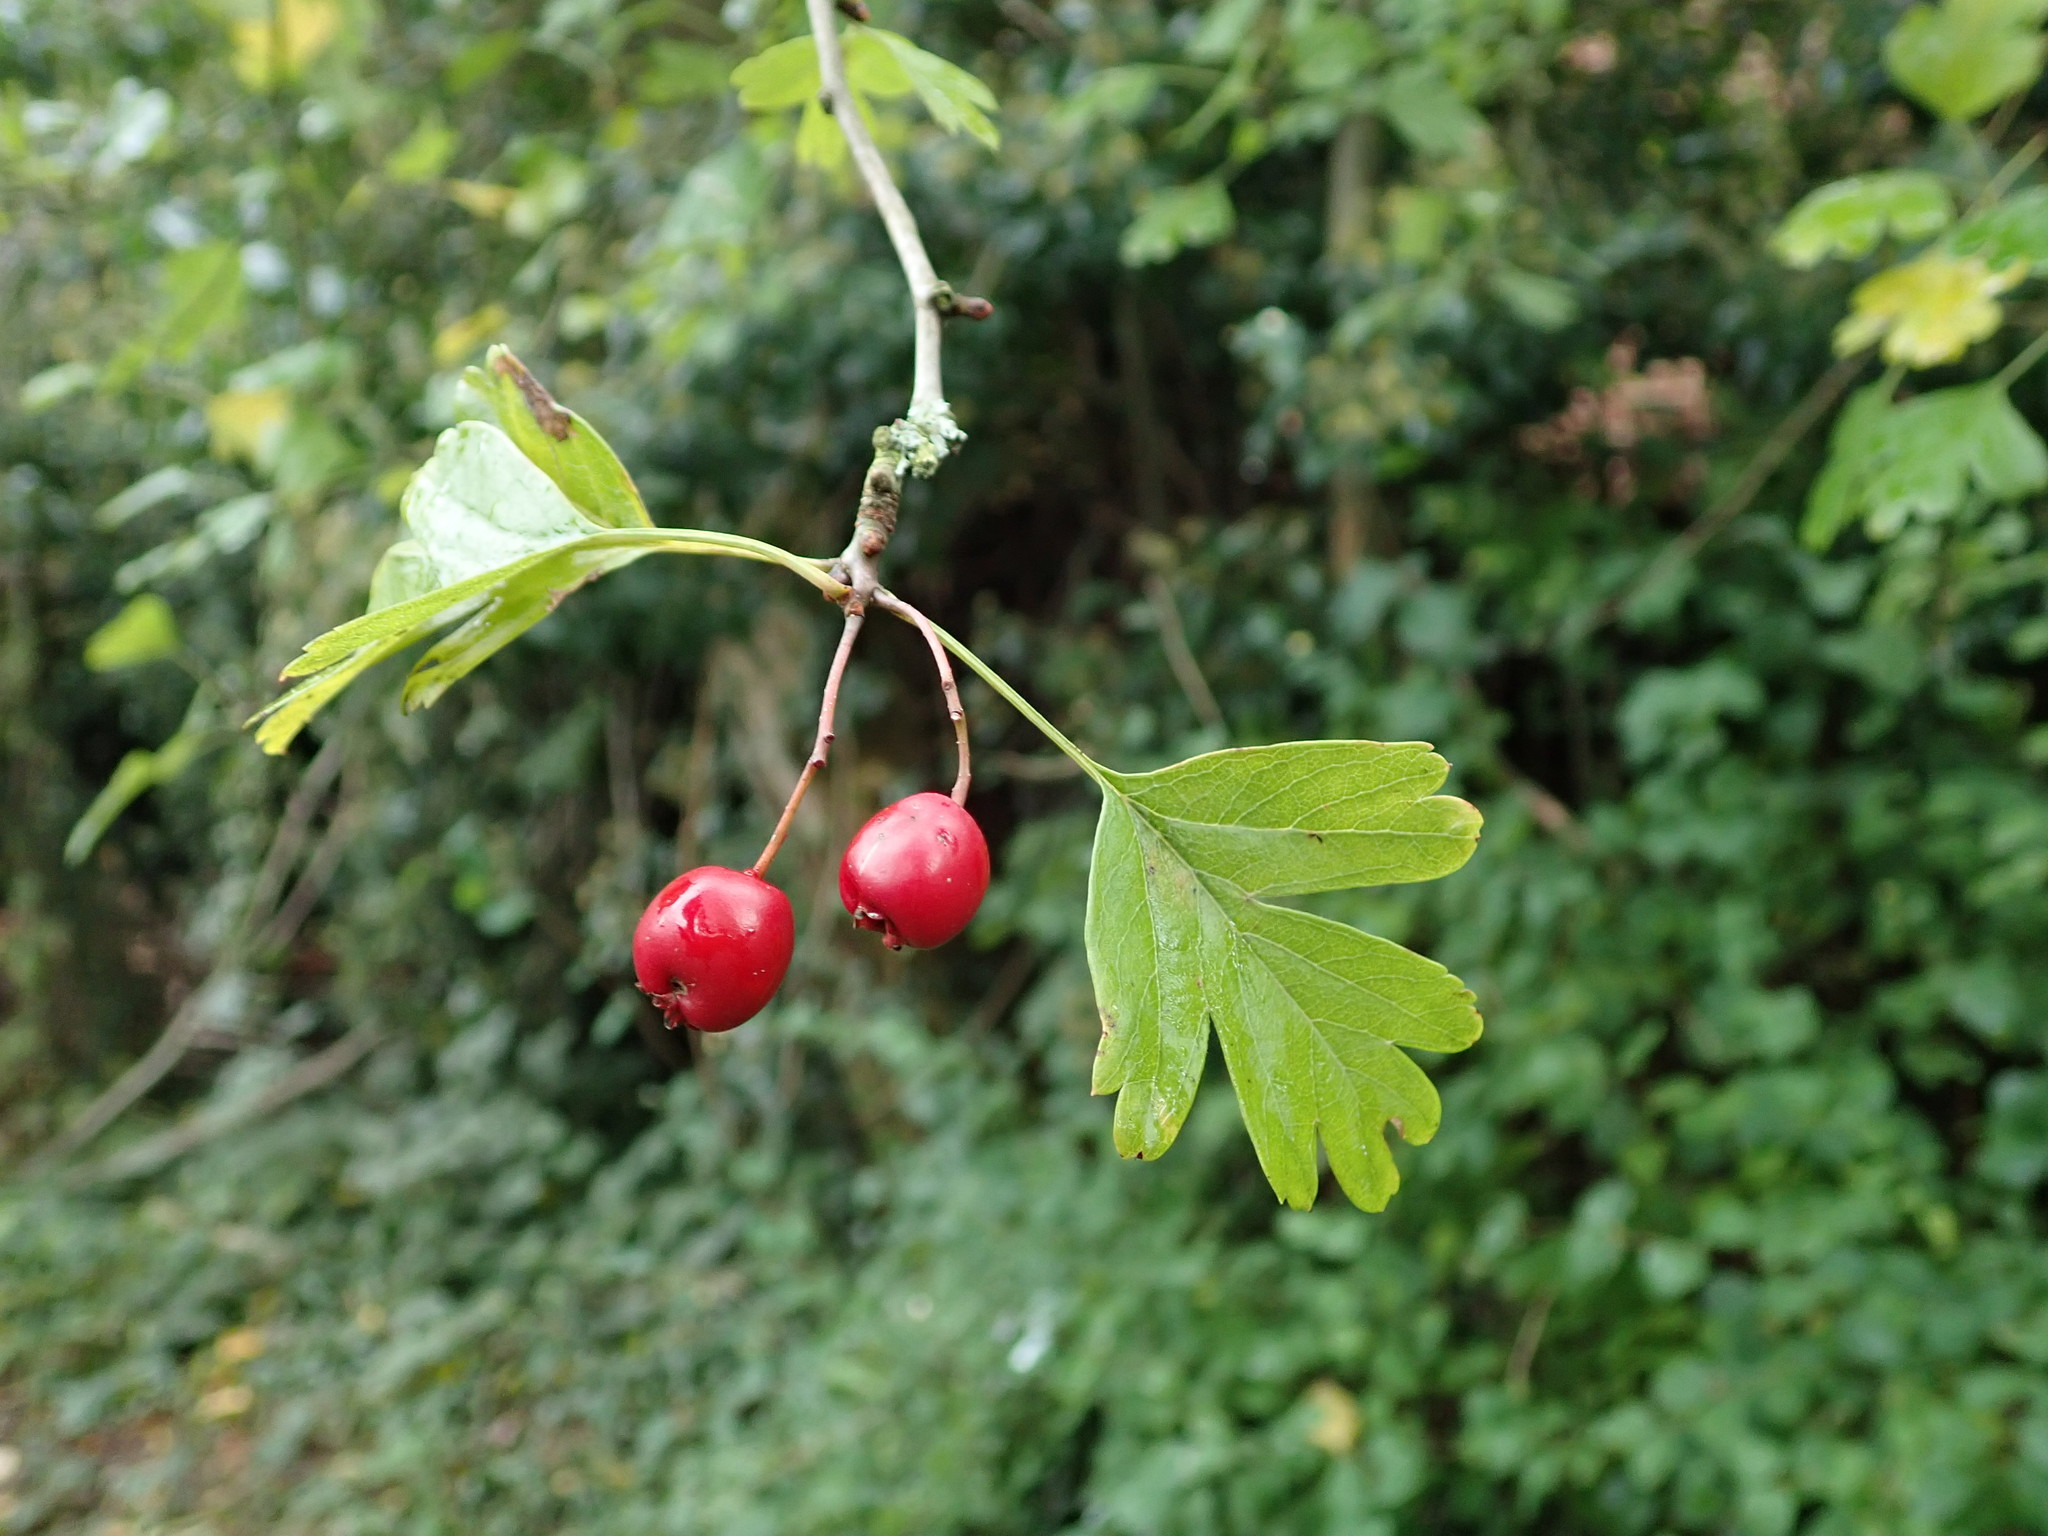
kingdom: Plantae
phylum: Tracheophyta
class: Magnoliopsida
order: Rosales
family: Rosaceae
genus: Crataegus
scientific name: Crataegus monogyna
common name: Hawthorn
